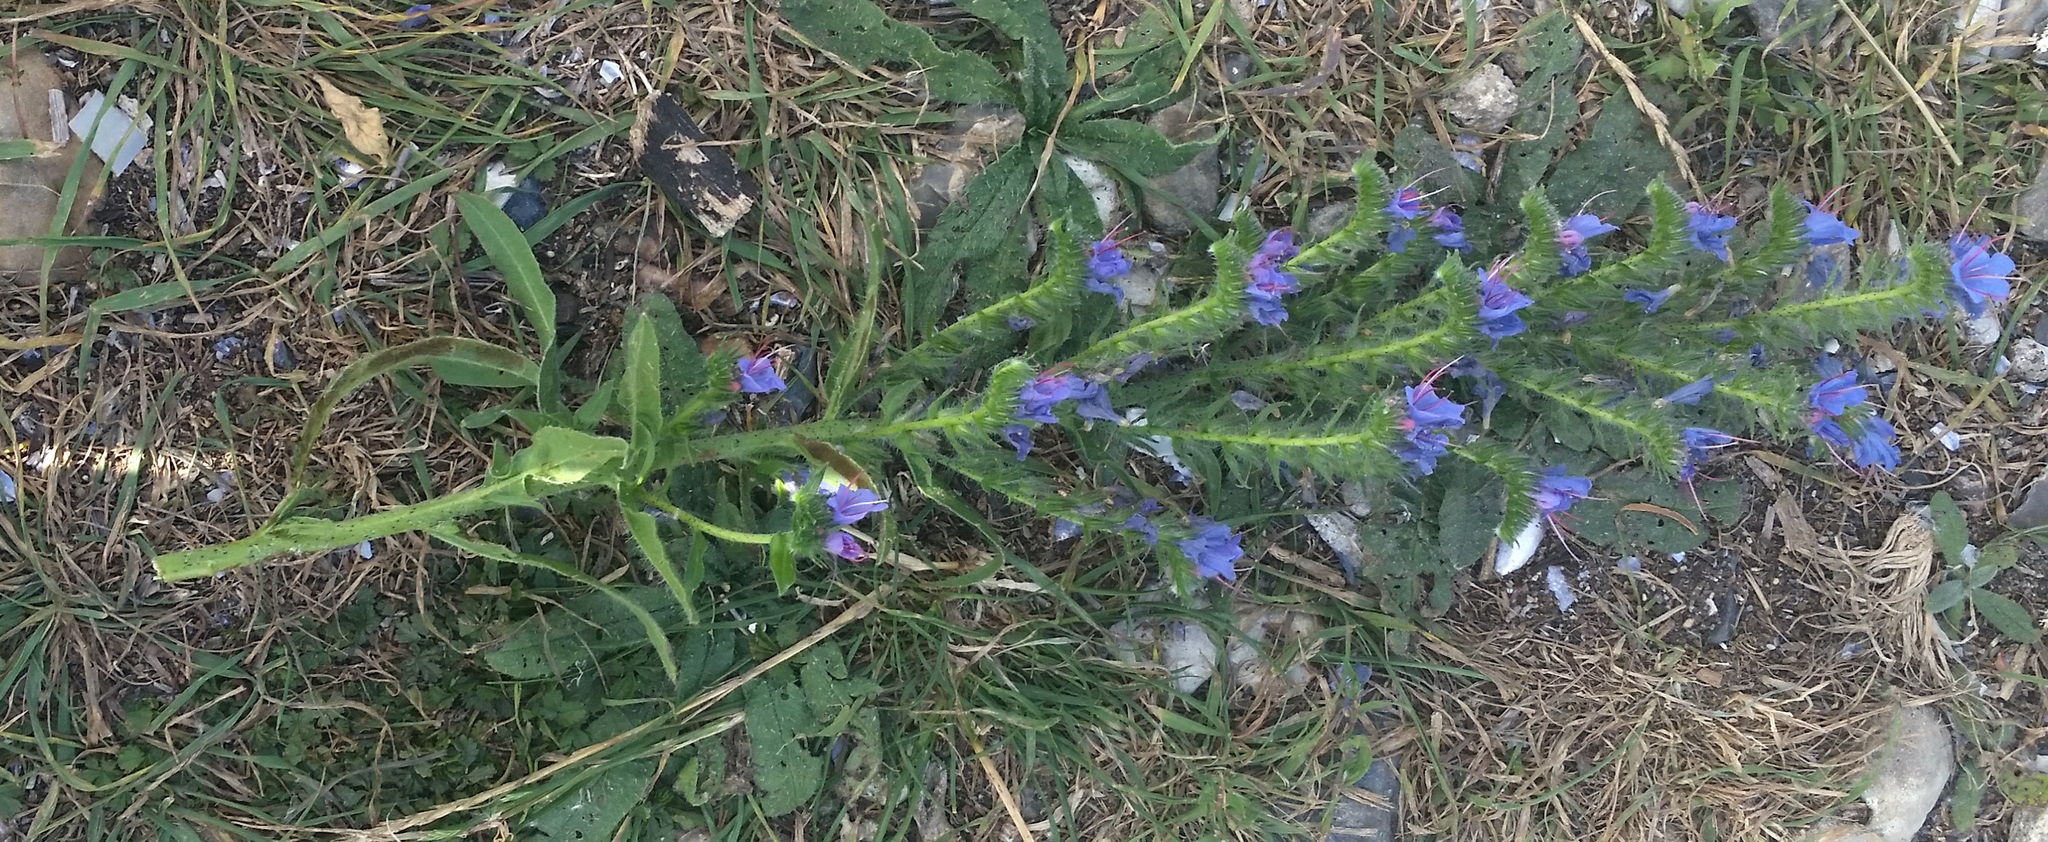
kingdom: Plantae
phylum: Tracheophyta
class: Magnoliopsida
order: Boraginales
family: Boraginaceae
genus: Echium
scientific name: Echium vulgare
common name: Common viper's bugloss
